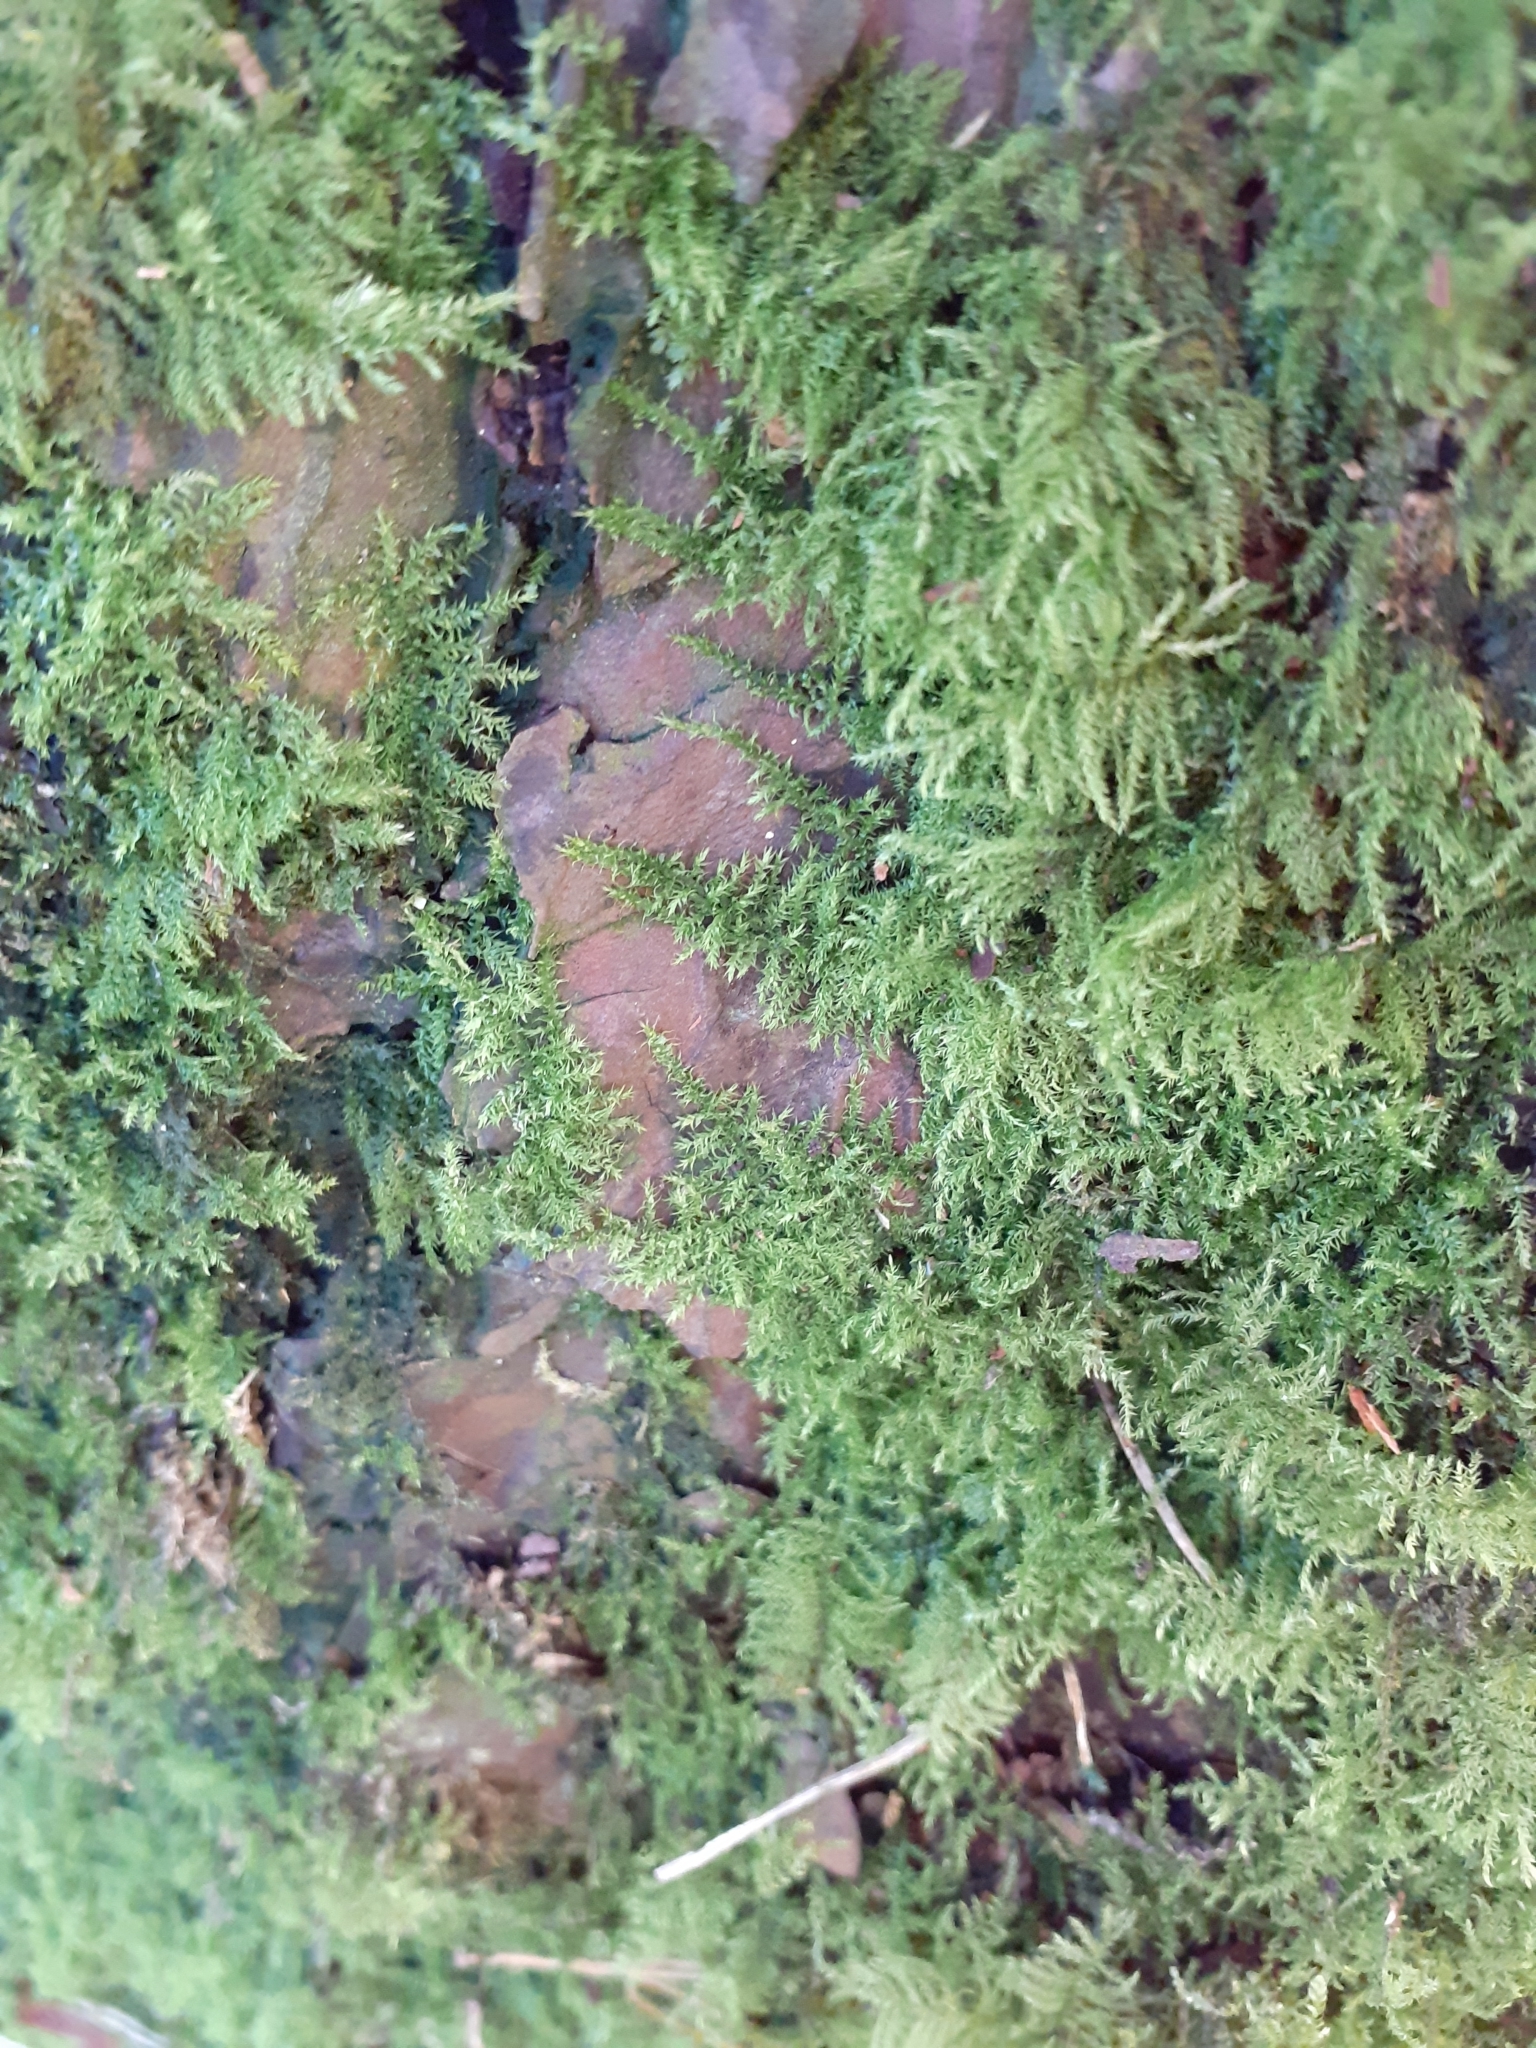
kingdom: Plantae
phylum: Bryophyta
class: Bryopsida
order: Hypnales
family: Brachytheciaceae
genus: Kindbergia
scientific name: Kindbergia praelonga
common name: Slender beaked moss
